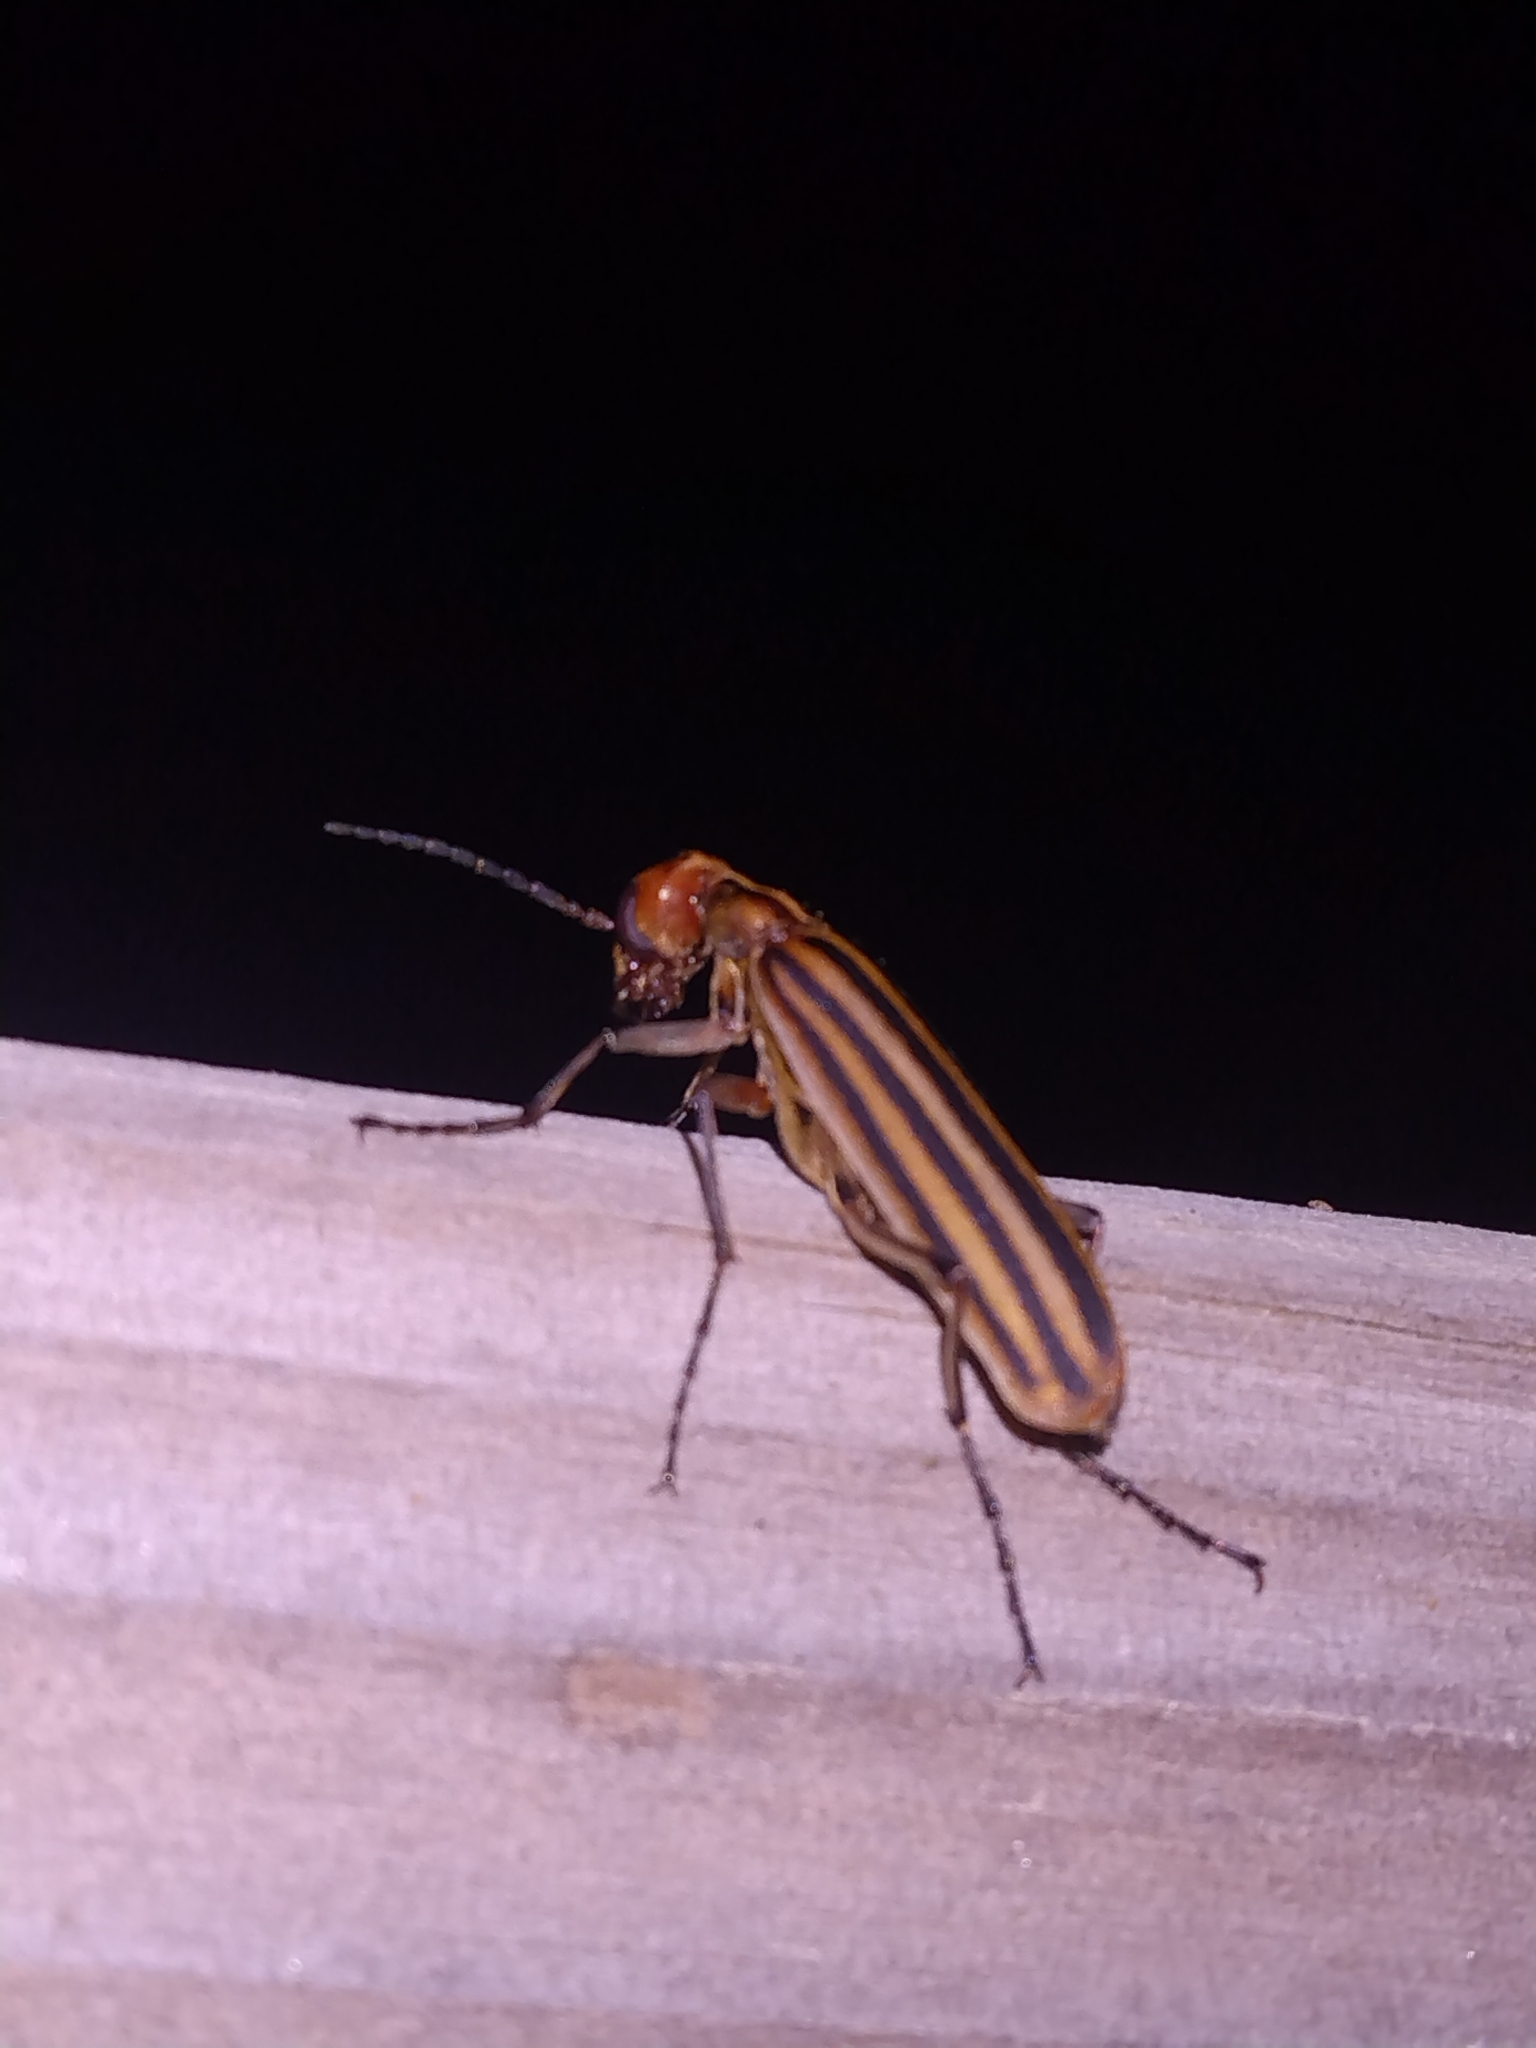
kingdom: Animalia
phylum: Arthropoda
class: Insecta
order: Coleoptera
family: Meloidae
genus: Epicauta
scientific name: Epicauta vittata
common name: Old-fashioned potato beetle
